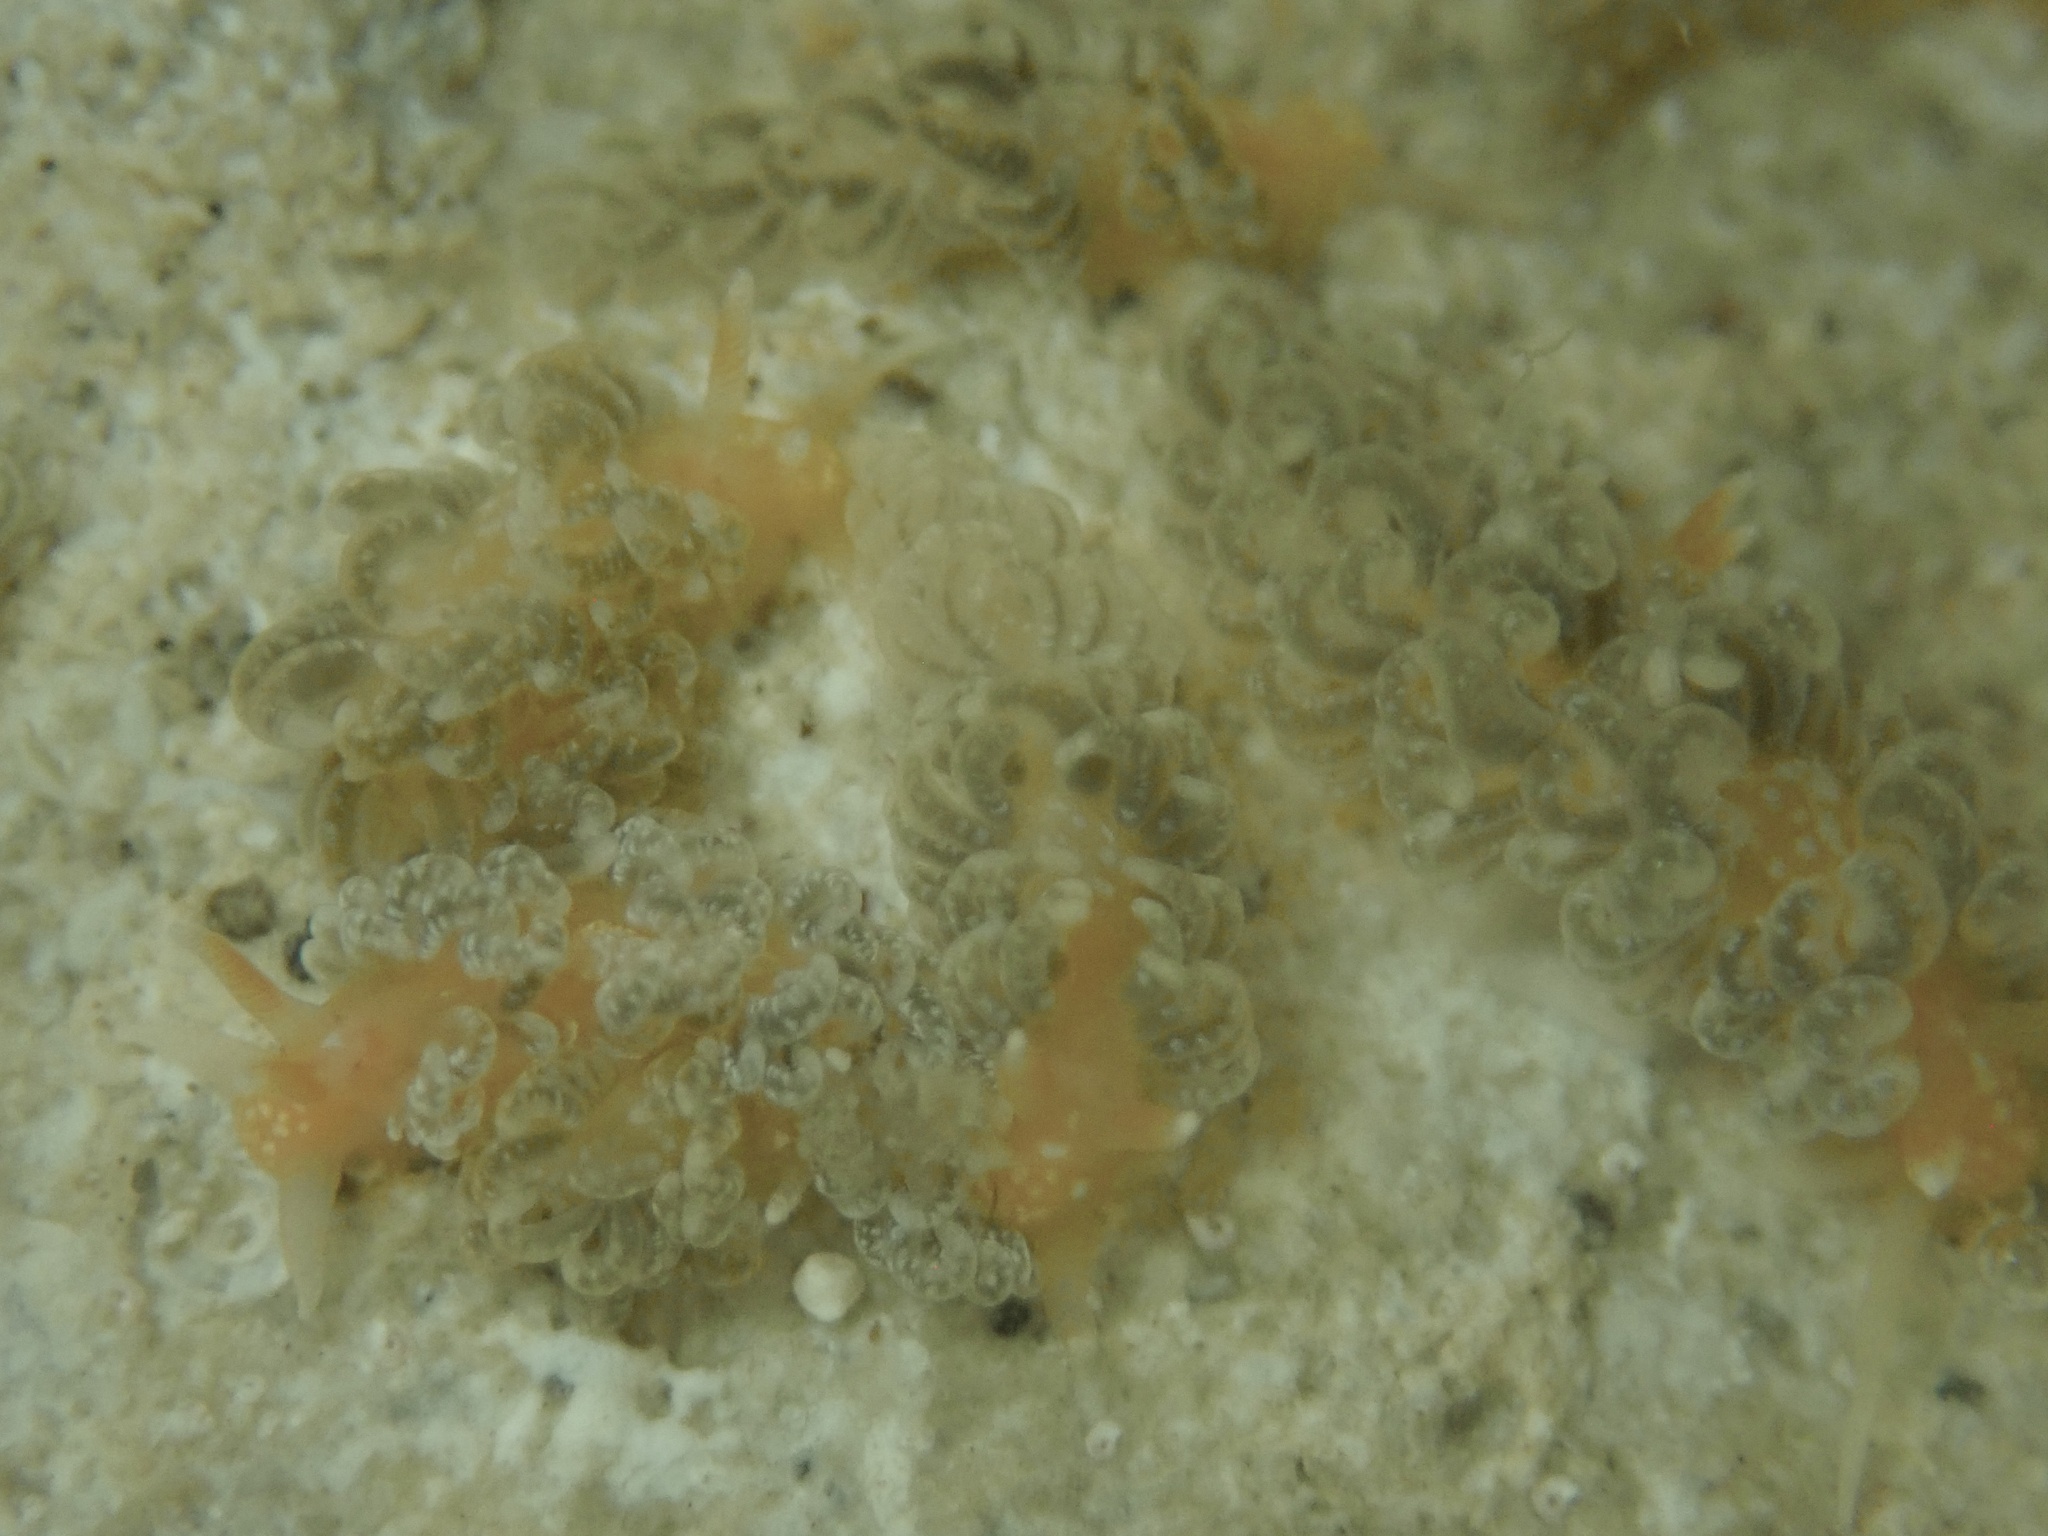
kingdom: Animalia
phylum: Mollusca
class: Gastropoda
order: Nudibranchia
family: Aeolidiidae
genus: Spurilla
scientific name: Spurilla braziliana
